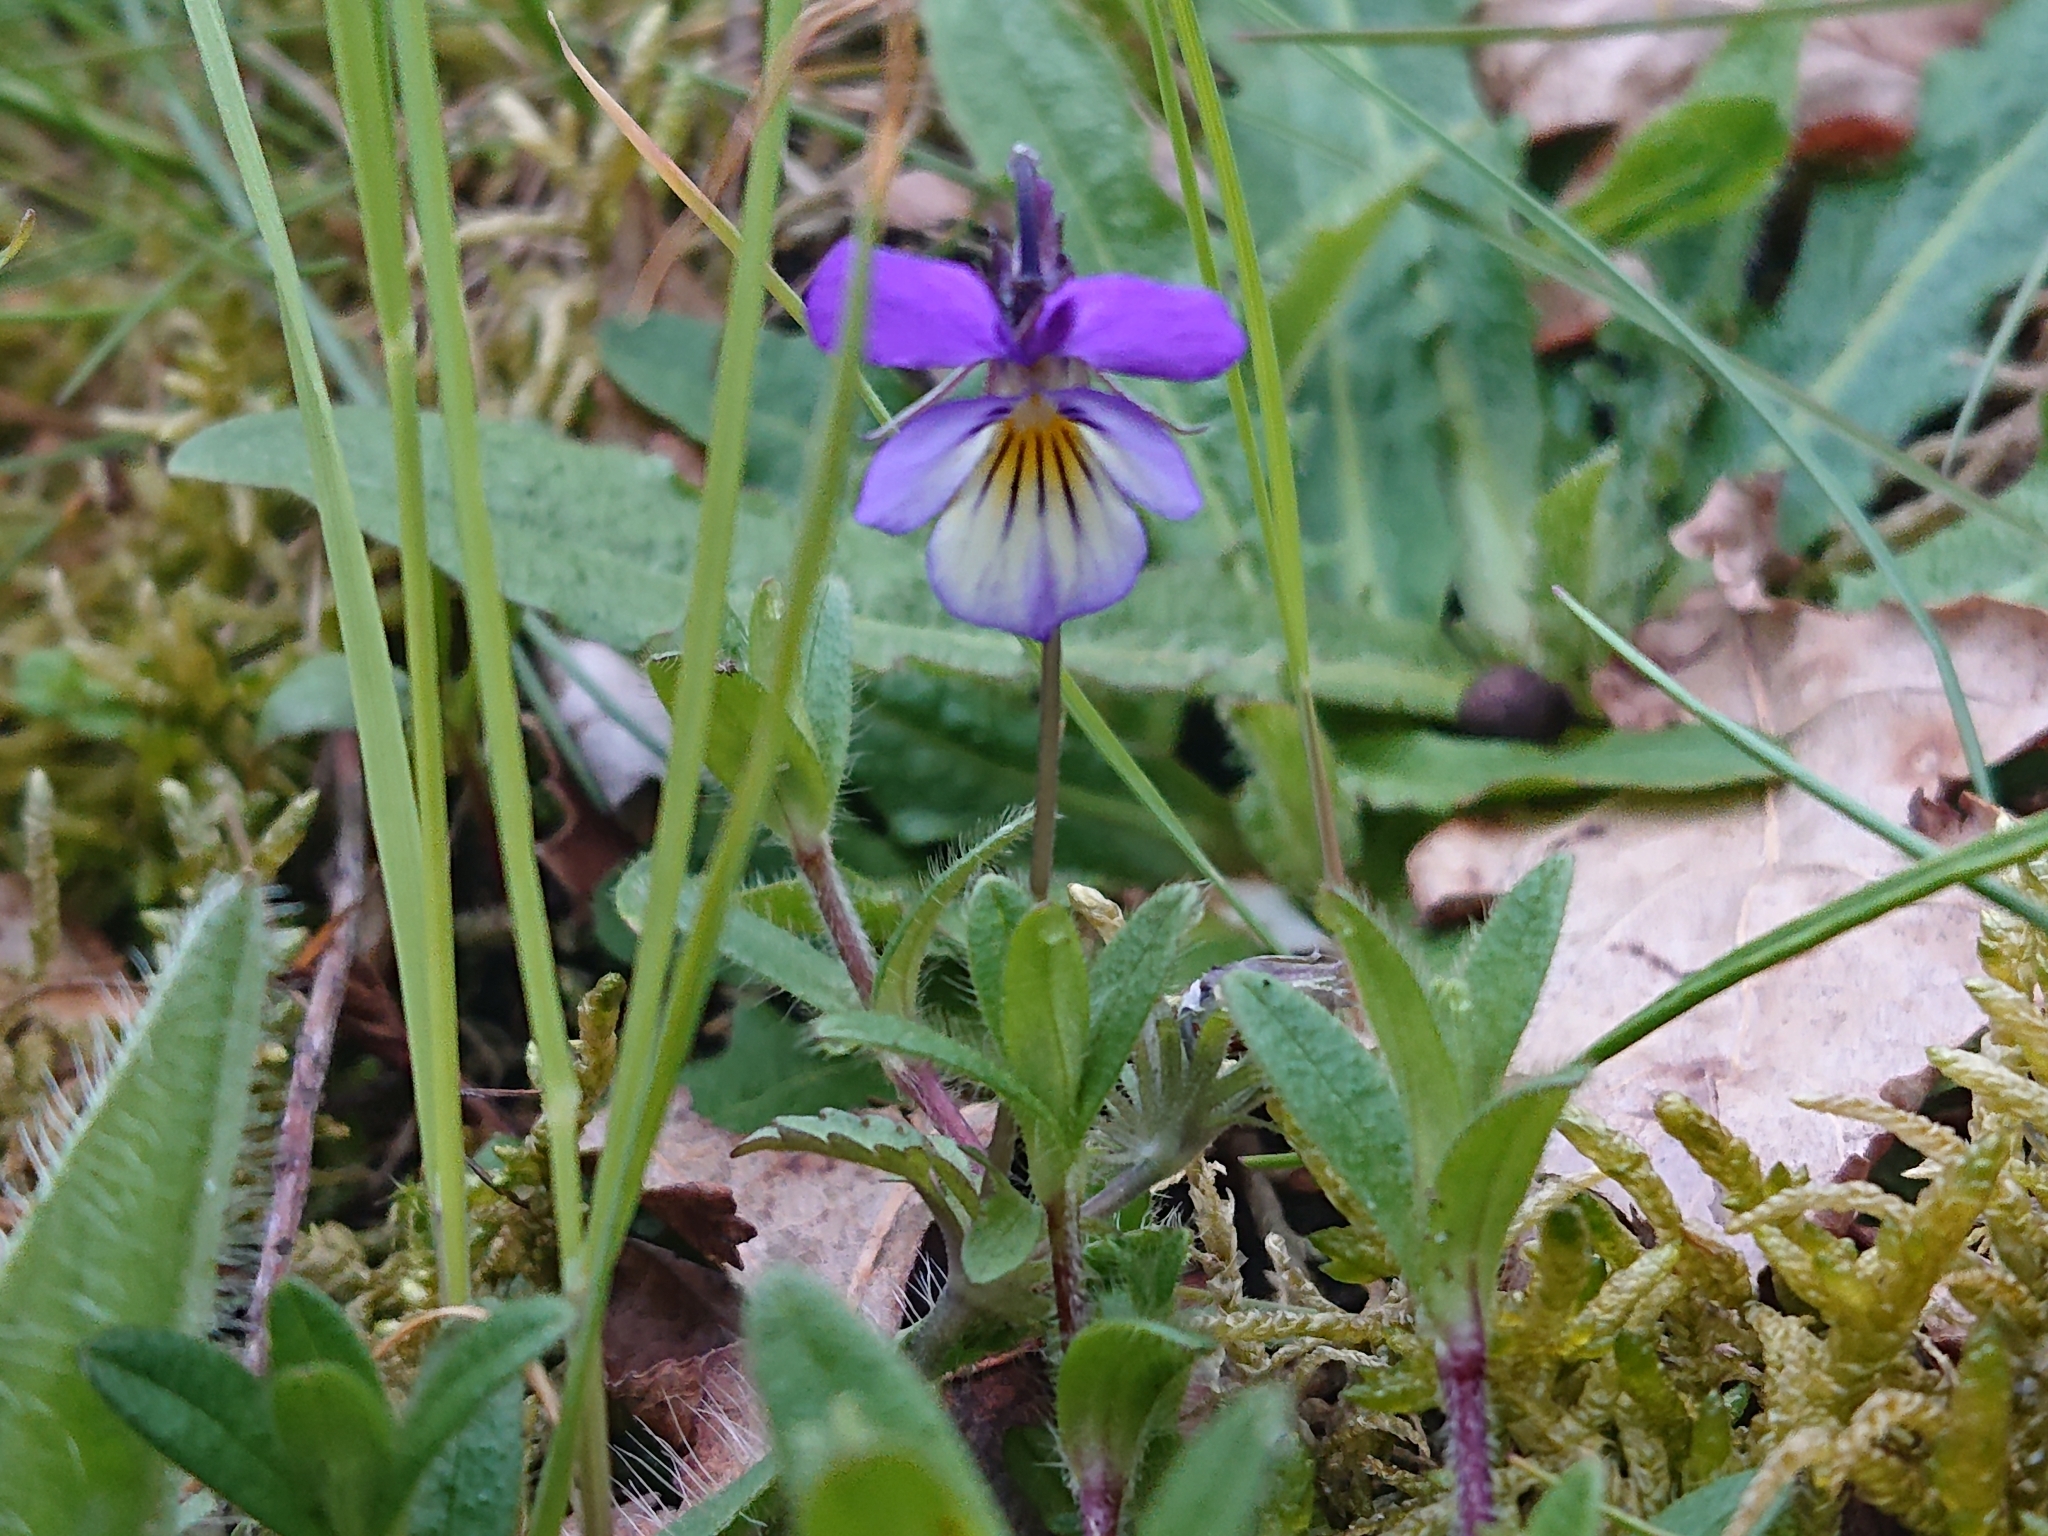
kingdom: Plantae
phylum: Tracheophyta
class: Magnoliopsida
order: Malpighiales
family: Violaceae
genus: Viola
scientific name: Viola tricolor
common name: Pansy
